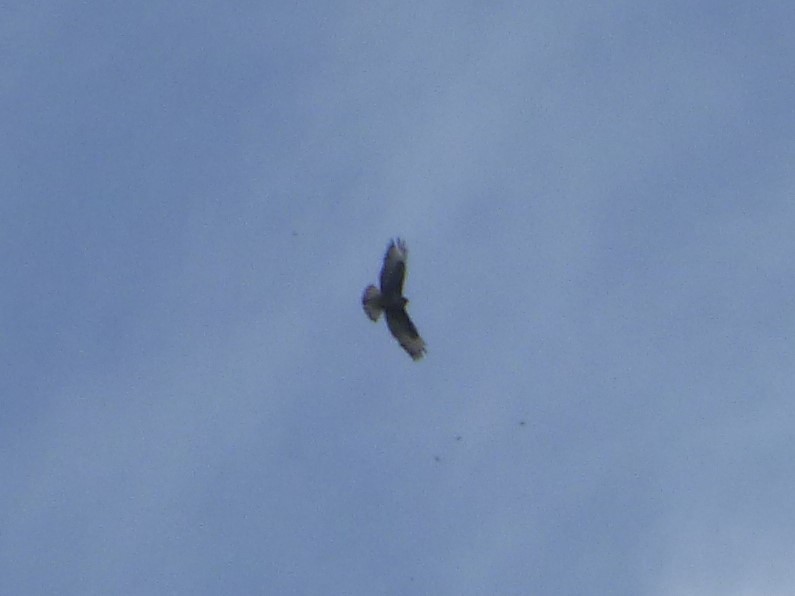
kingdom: Animalia
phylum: Chordata
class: Aves
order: Accipitriformes
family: Accipitridae
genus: Buteo
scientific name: Buteo buteo
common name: Common buzzard
